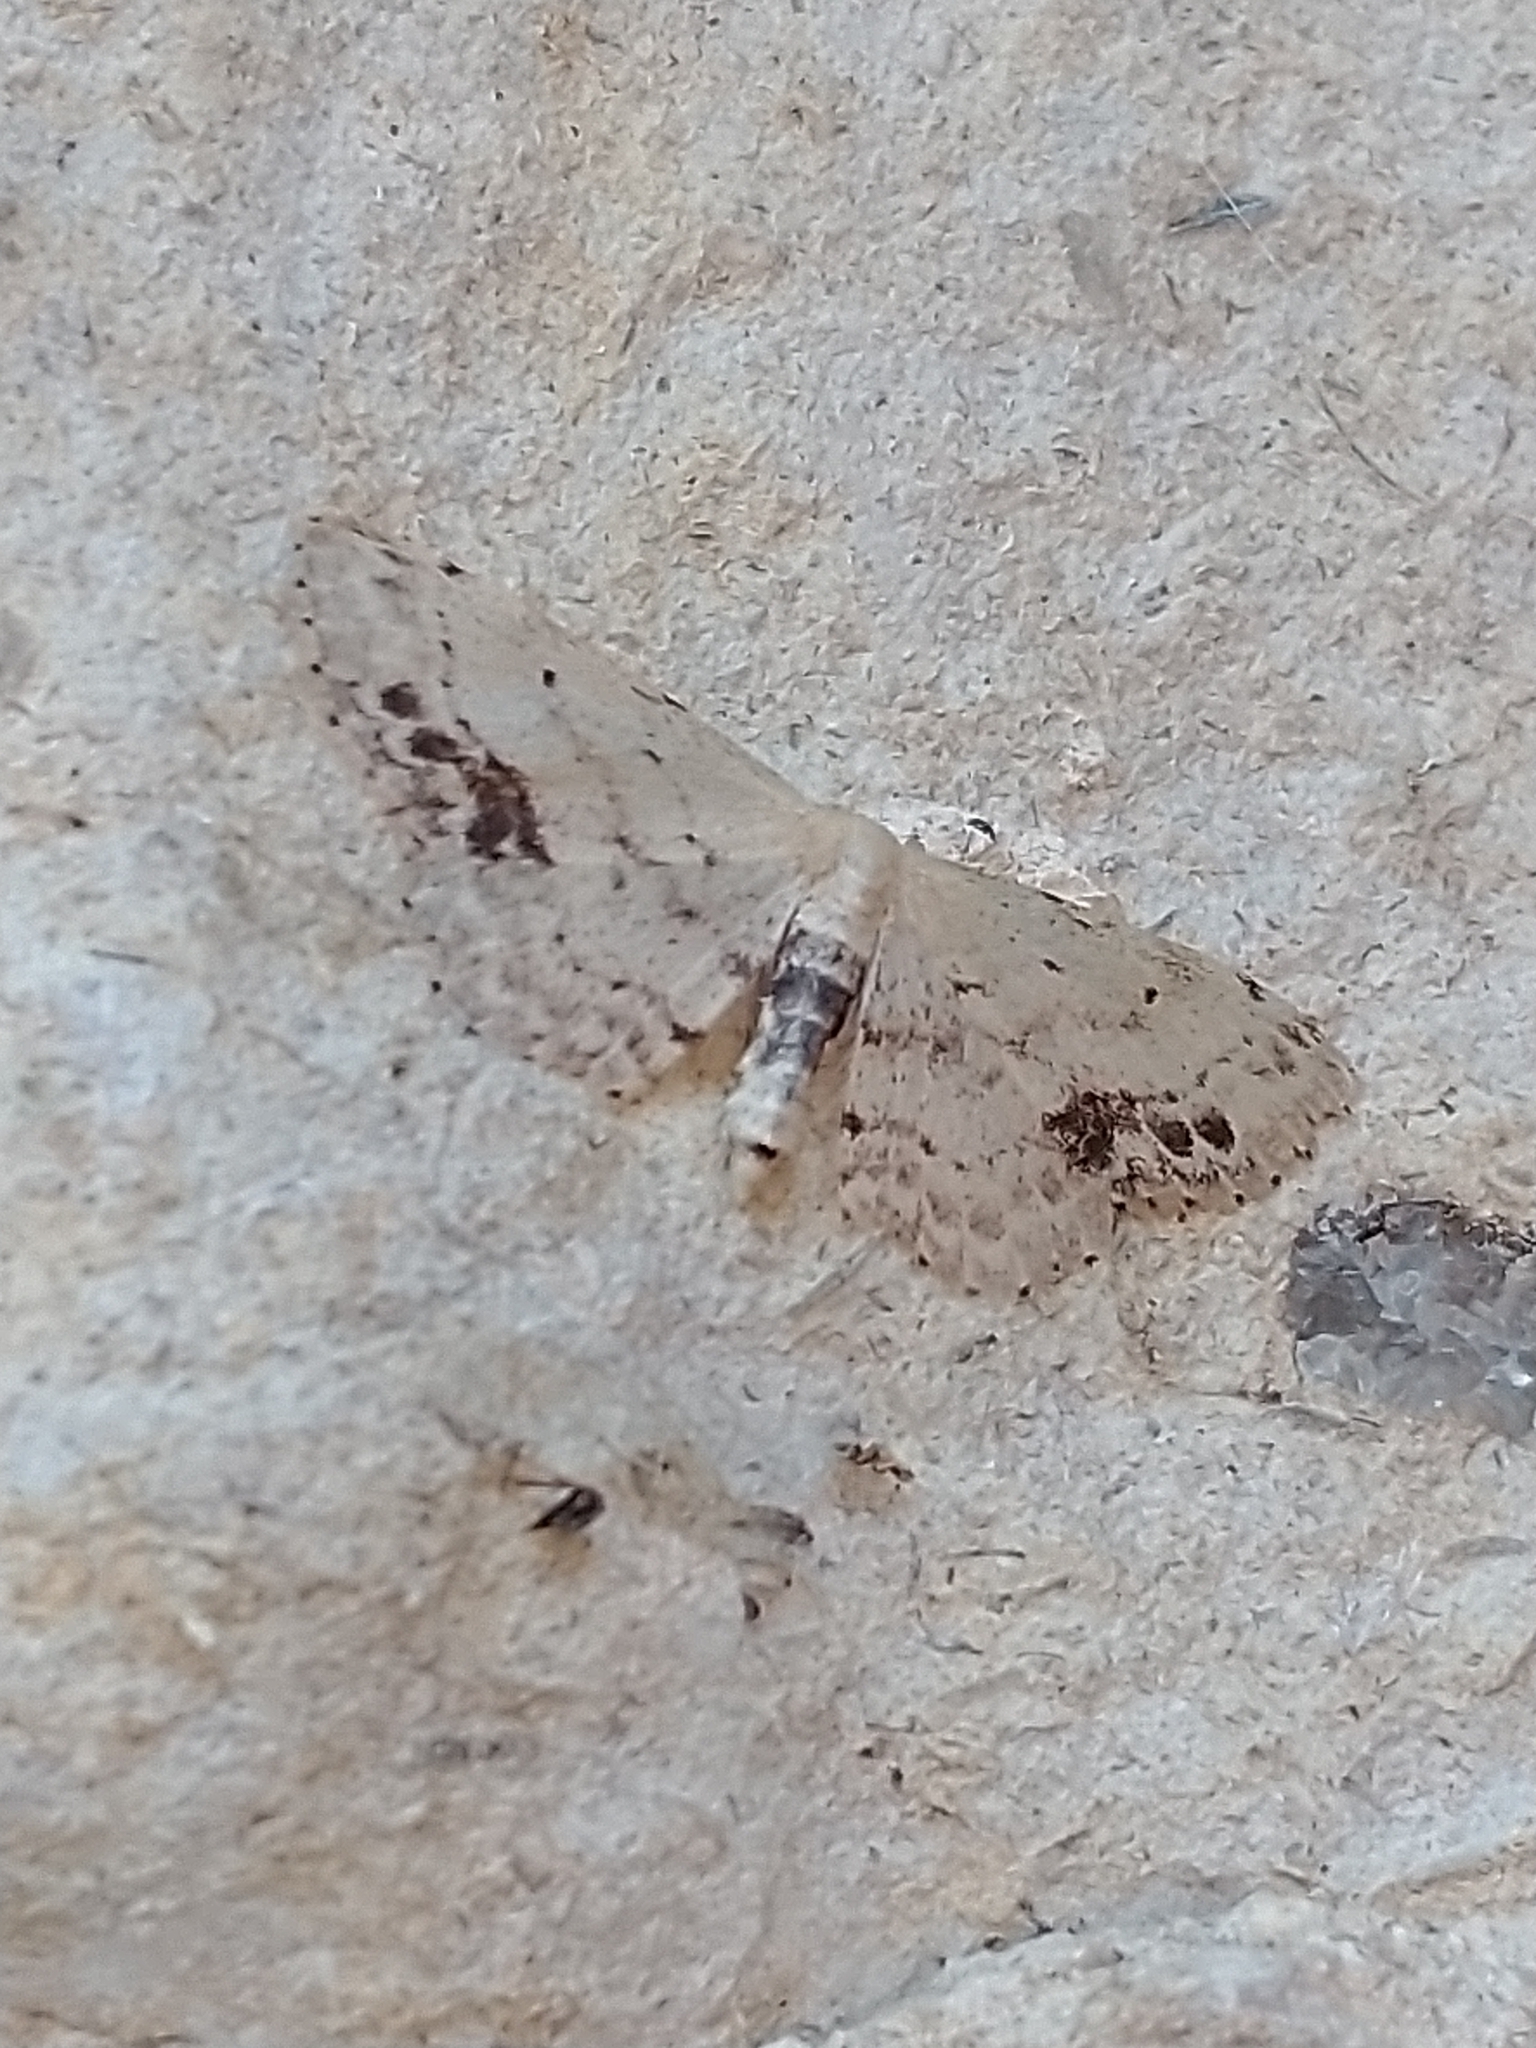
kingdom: Animalia
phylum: Arthropoda
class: Insecta
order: Lepidoptera
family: Geometridae
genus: Idaea
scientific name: Idaea dimidiata
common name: Single-dotted wave
